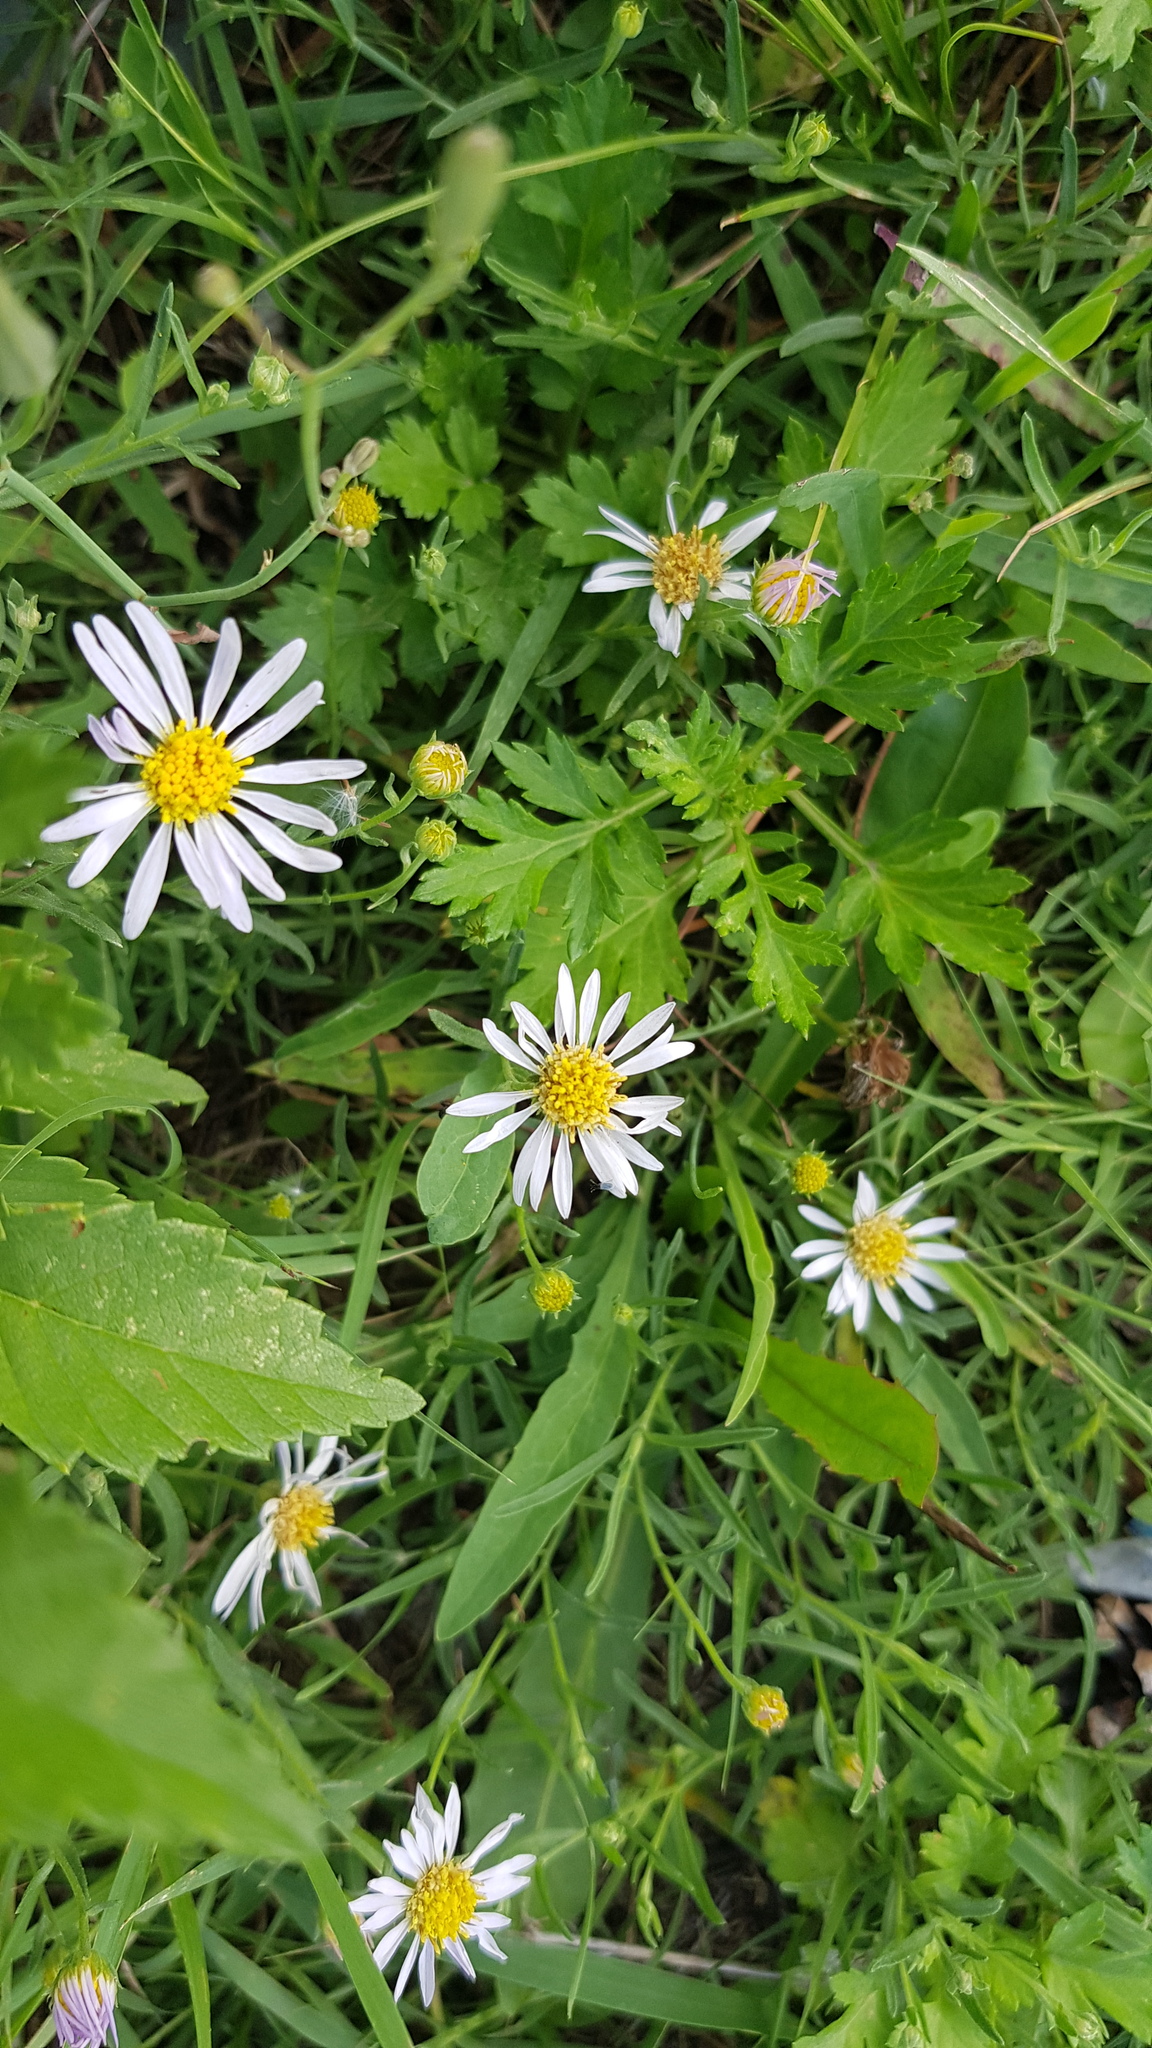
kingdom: Plantae
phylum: Tracheophyta
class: Magnoliopsida
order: Asterales
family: Asteraceae
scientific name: Asteraceae
